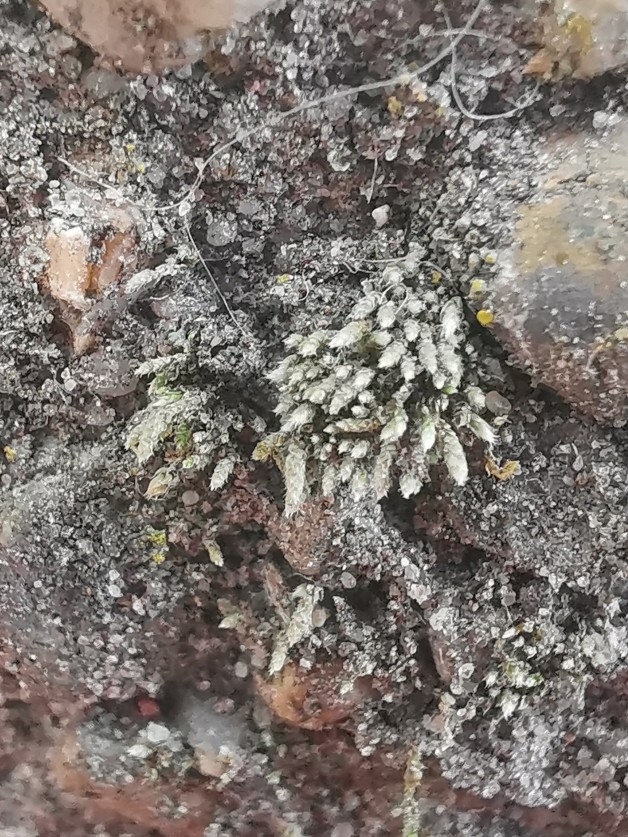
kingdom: Plantae
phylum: Bryophyta
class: Bryopsida
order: Bryales
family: Bryaceae
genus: Bryum
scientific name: Bryum argenteum
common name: Silver-moss
